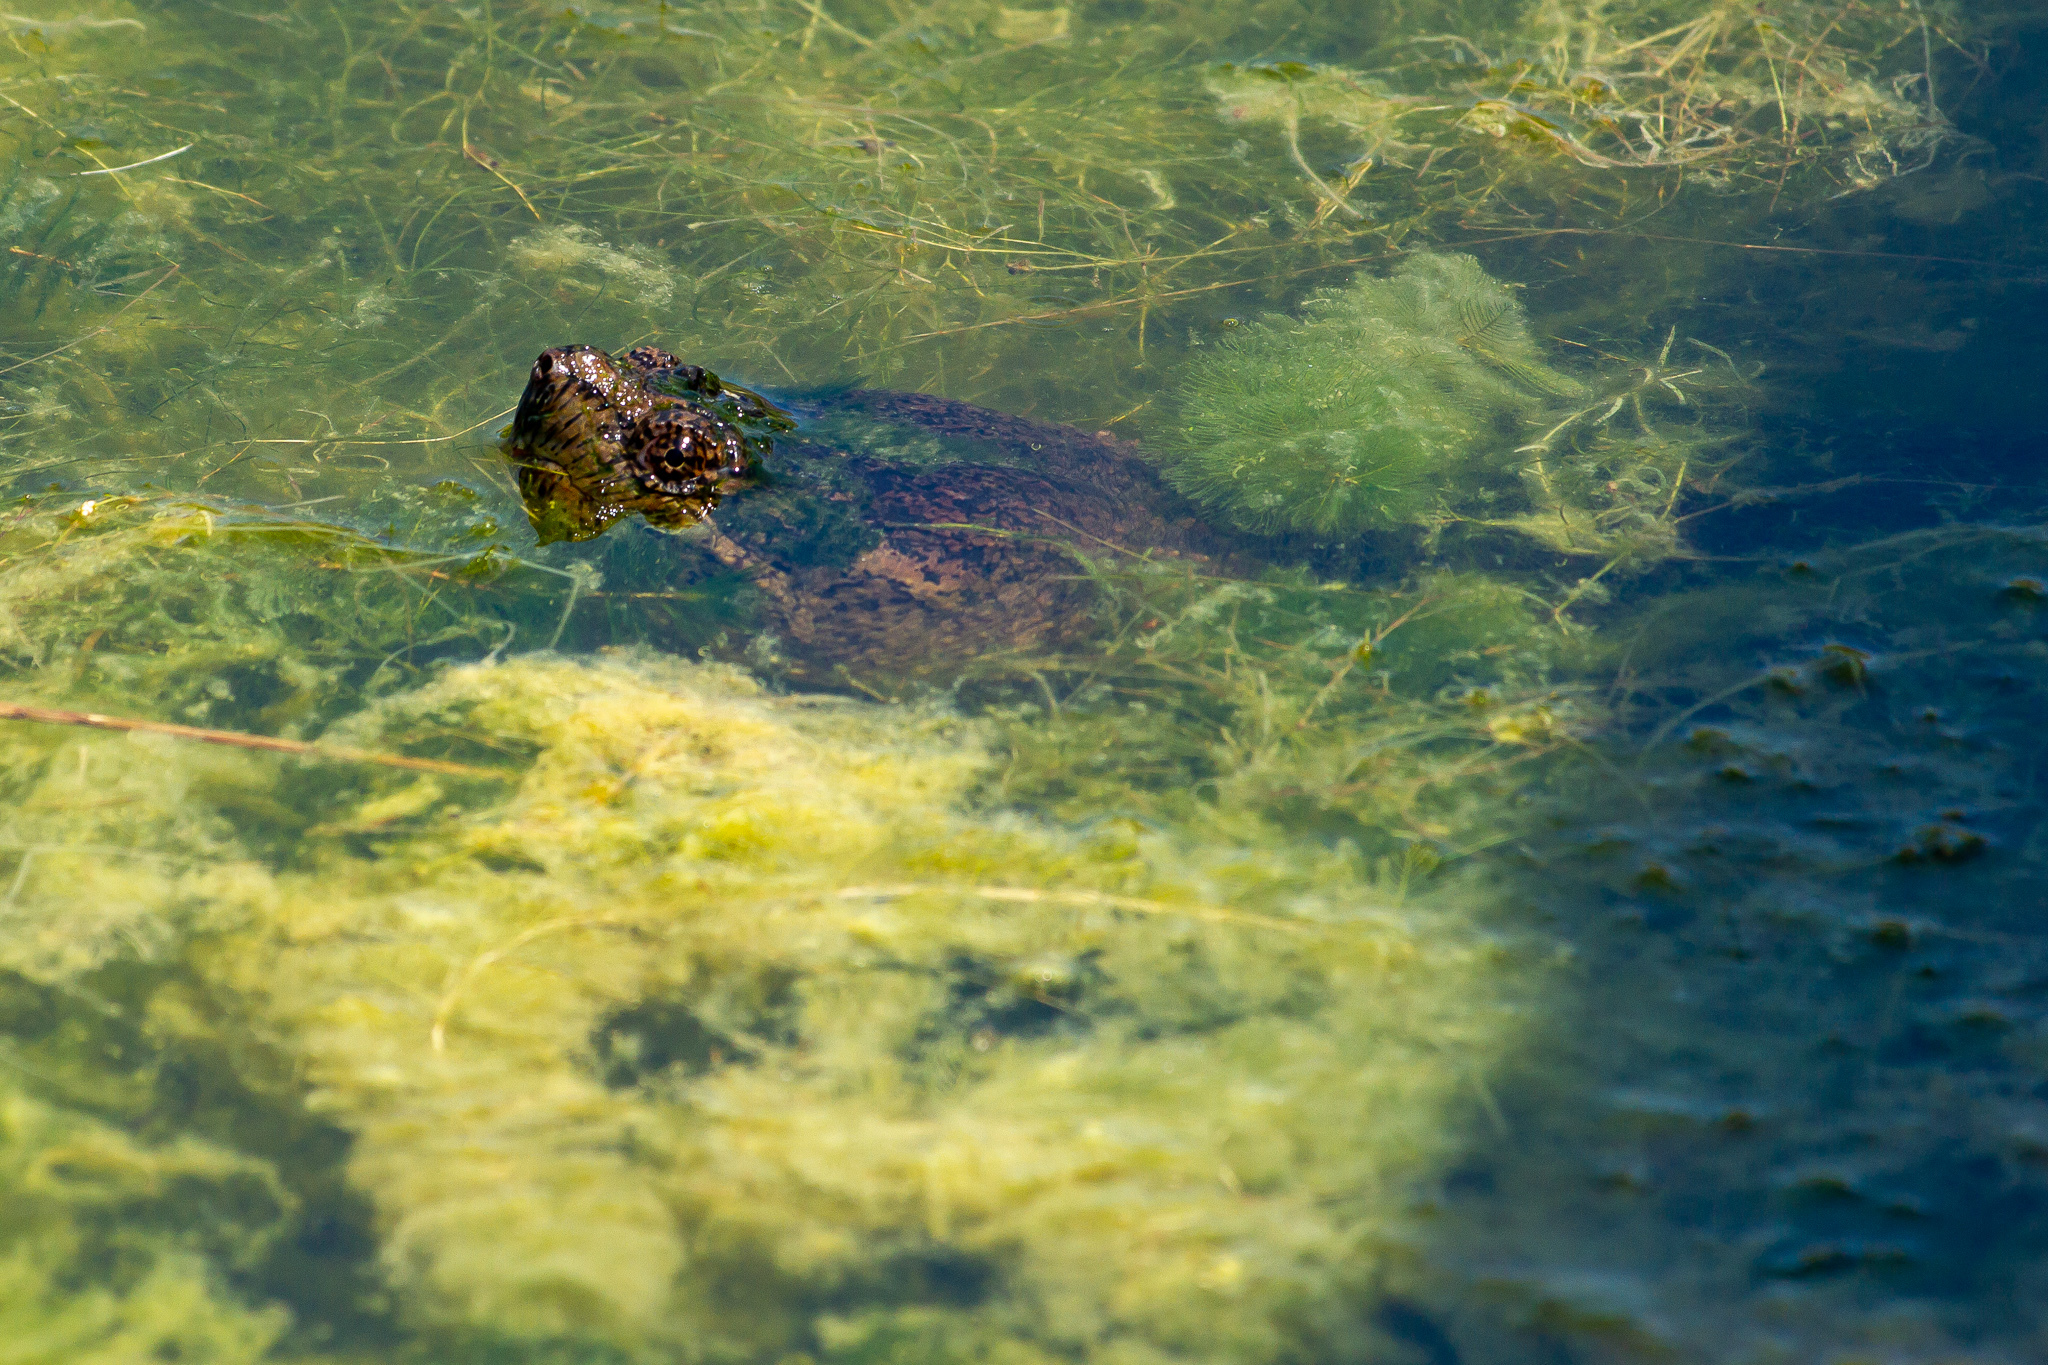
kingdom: Animalia
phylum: Chordata
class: Testudines
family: Chelydridae
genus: Chelydra
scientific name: Chelydra serpentina
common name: Common snapping turtle
